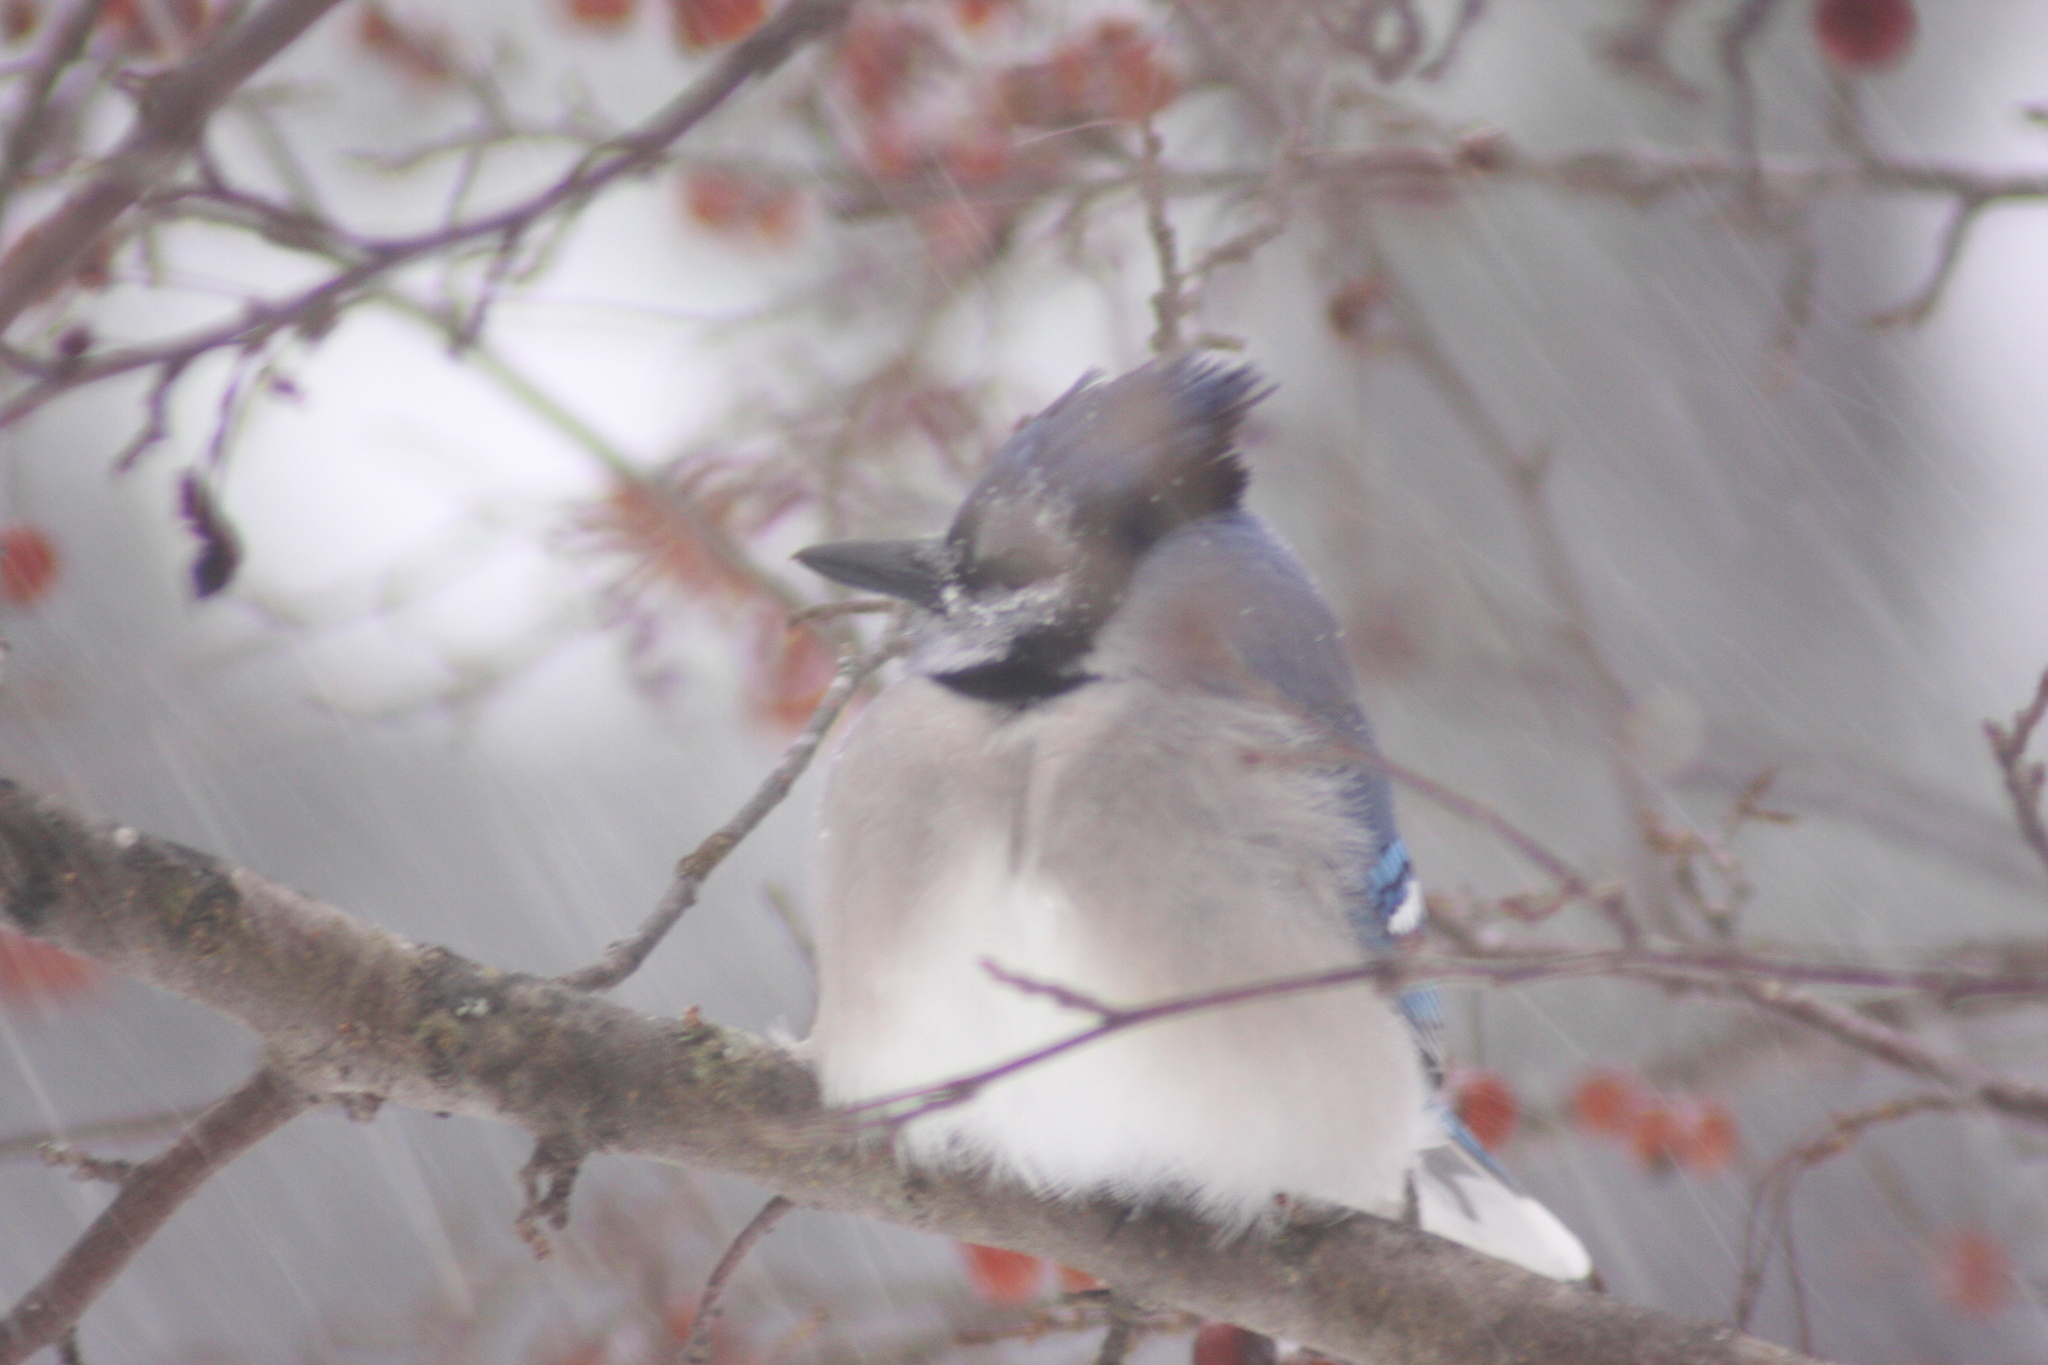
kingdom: Animalia
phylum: Chordata
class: Aves
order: Passeriformes
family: Corvidae
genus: Cyanocitta
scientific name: Cyanocitta cristata
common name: Blue jay
